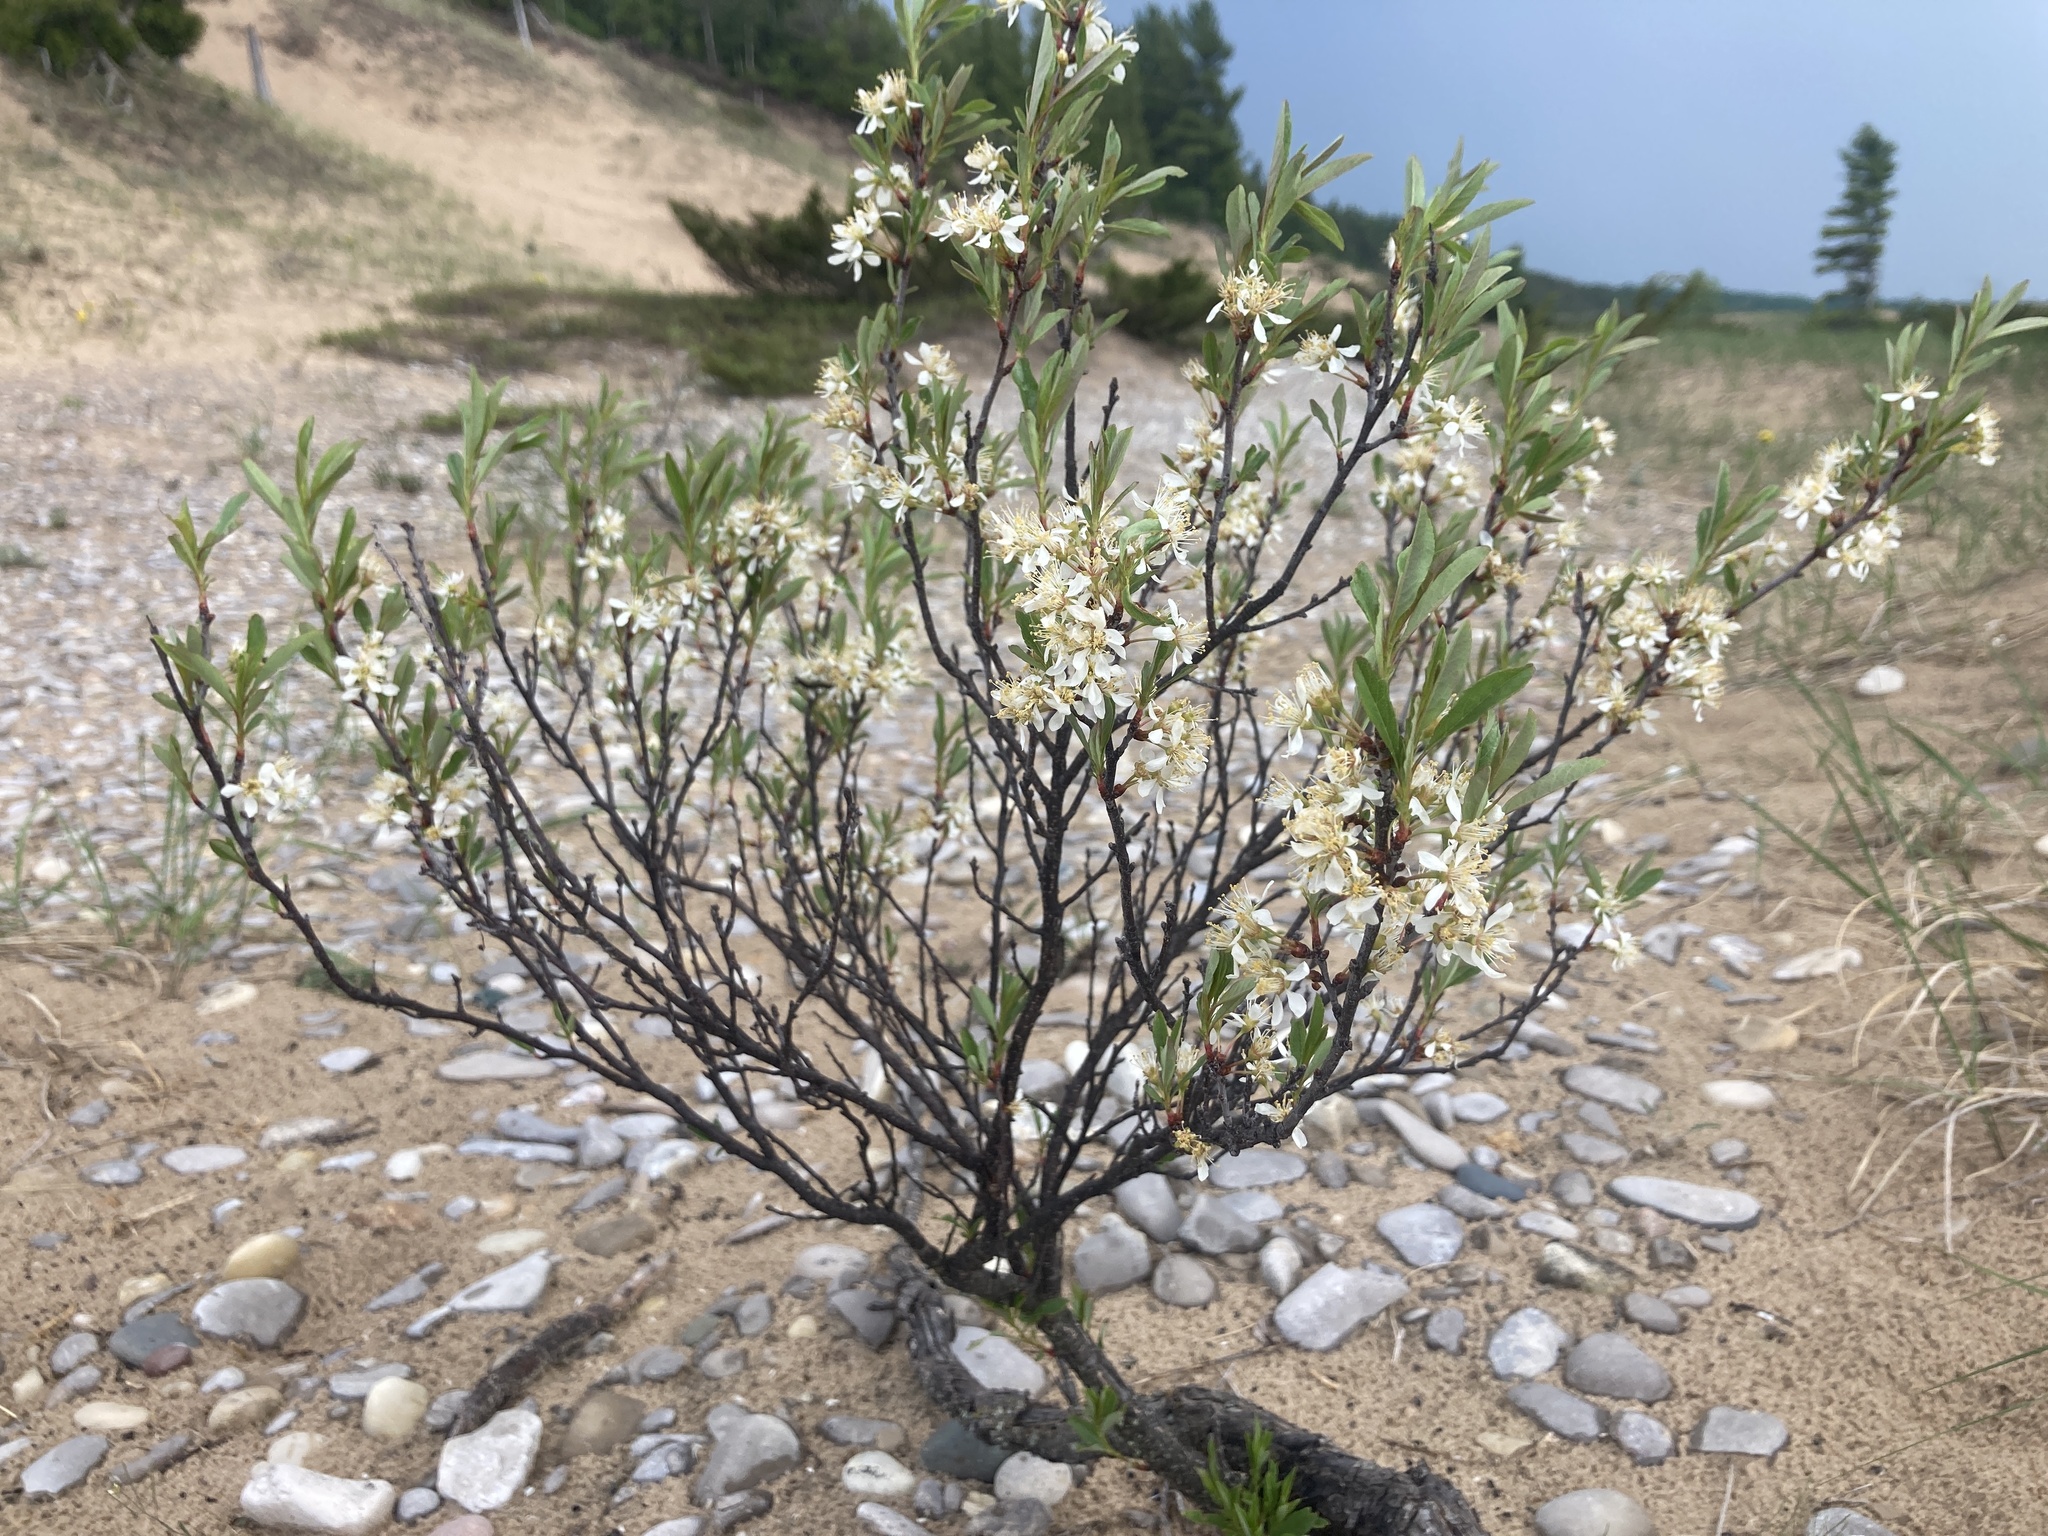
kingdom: Plantae
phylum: Tracheophyta
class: Magnoliopsida
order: Rosales
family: Rosaceae
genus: Prunus
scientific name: Prunus pumila
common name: Dwarf cherry
